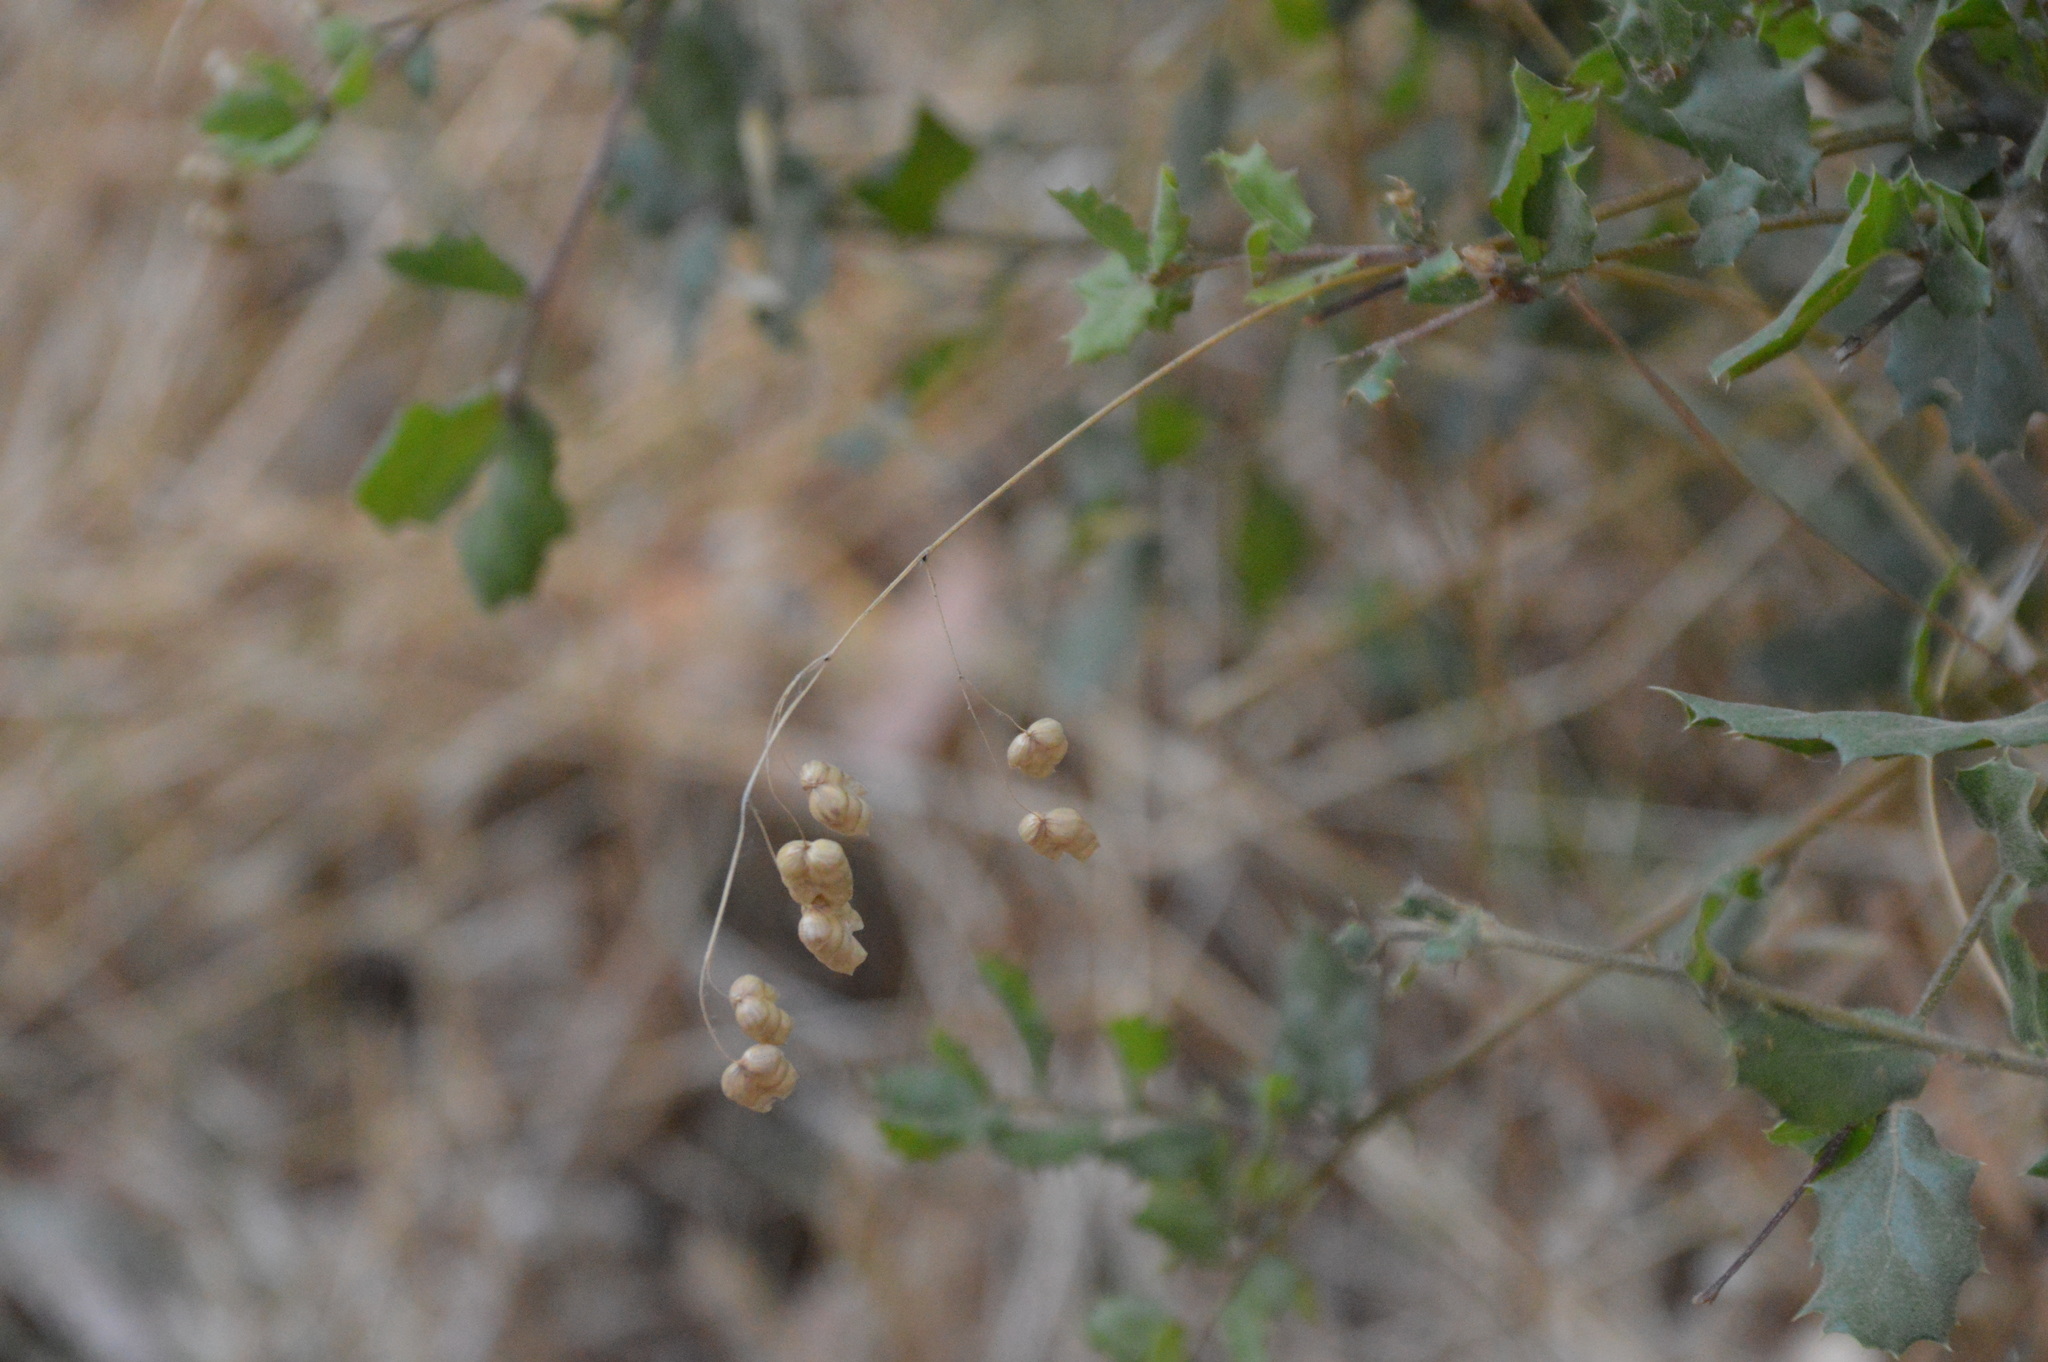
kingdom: Plantae
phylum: Tracheophyta
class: Liliopsida
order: Poales
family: Poaceae
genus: Briza
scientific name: Briza maxima
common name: Big quakinggrass
